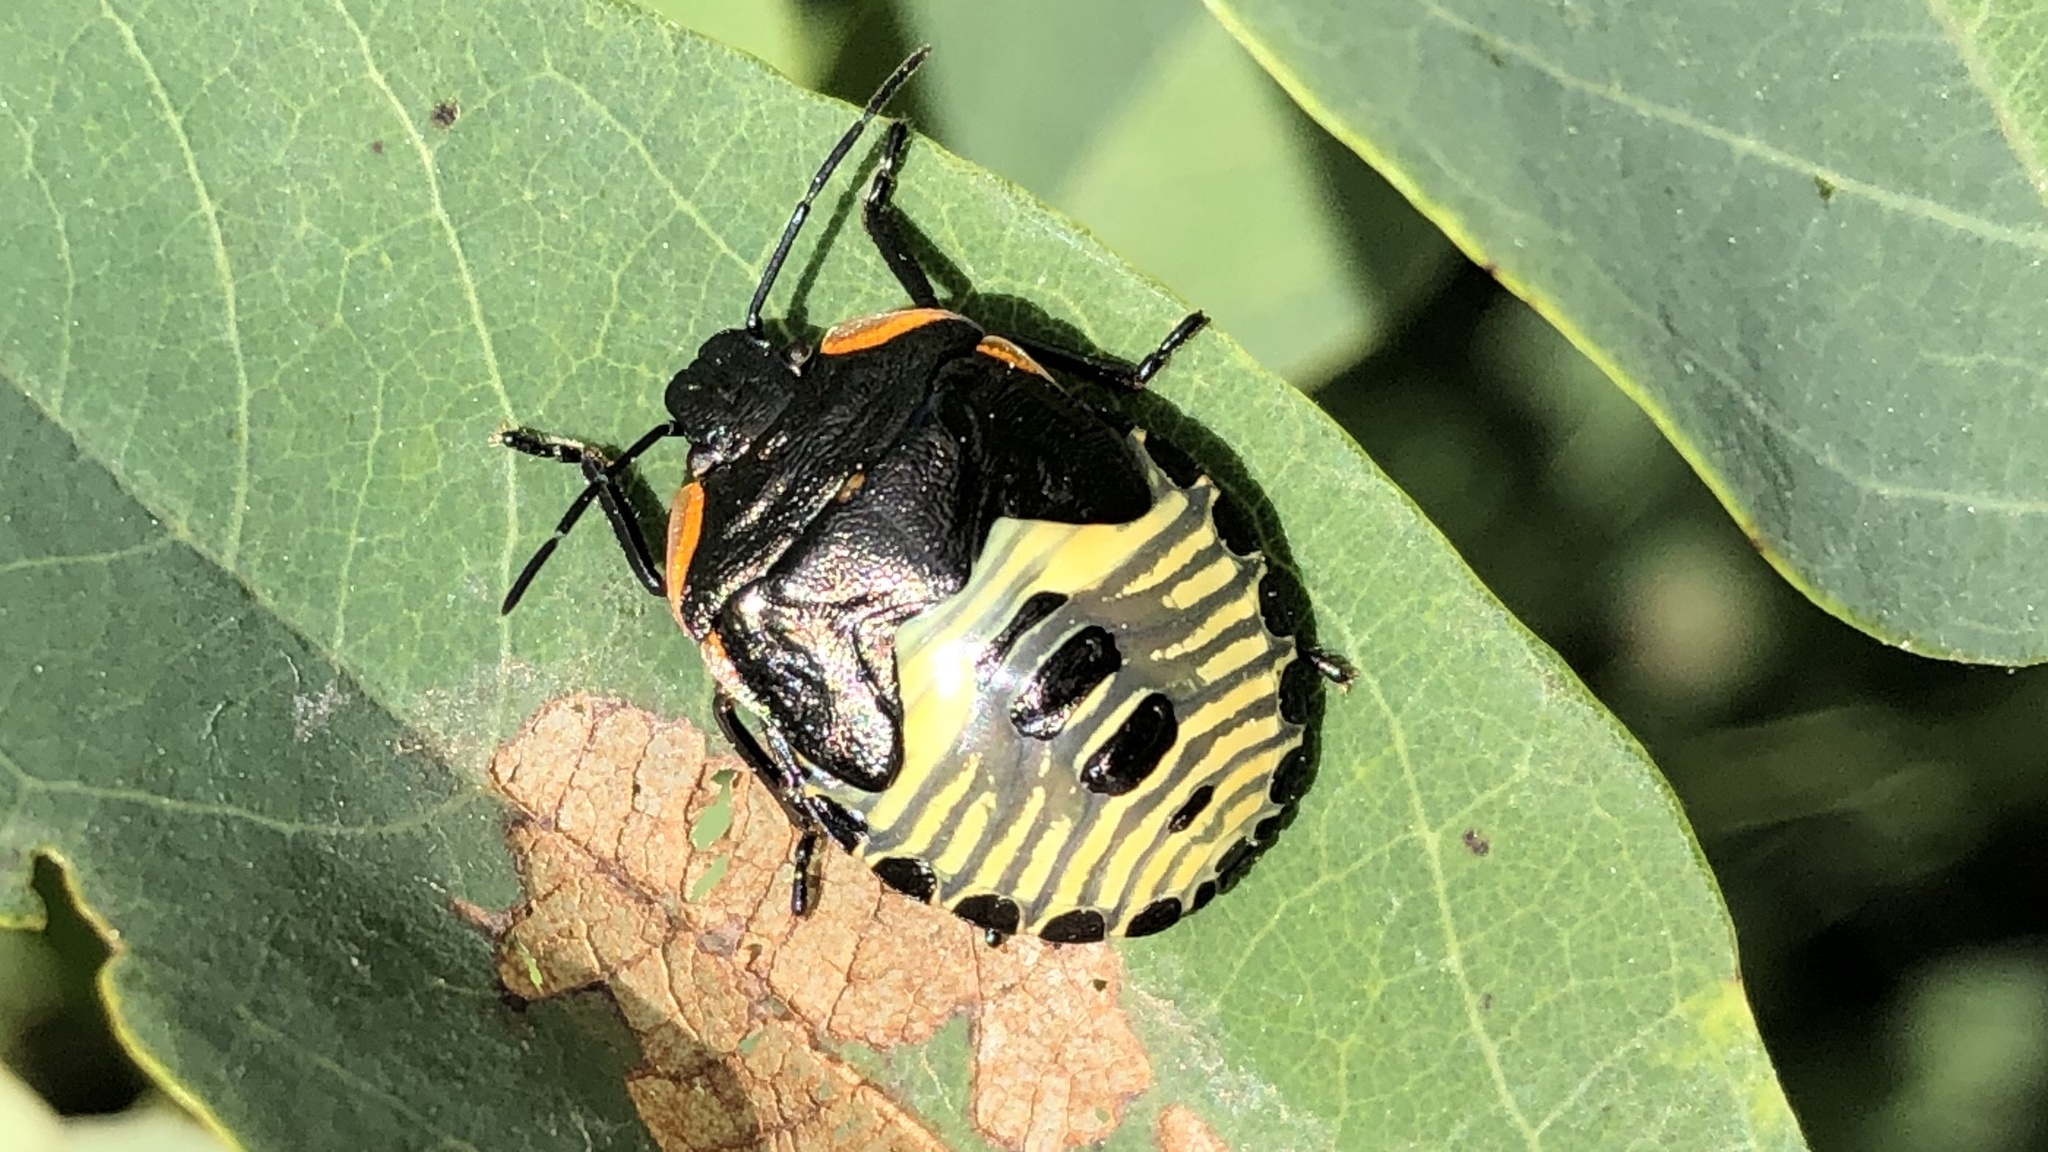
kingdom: Animalia
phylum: Arthropoda
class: Insecta
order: Hemiptera
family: Pentatomidae
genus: Chinavia
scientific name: Chinavia hilaris
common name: Green stink bug
